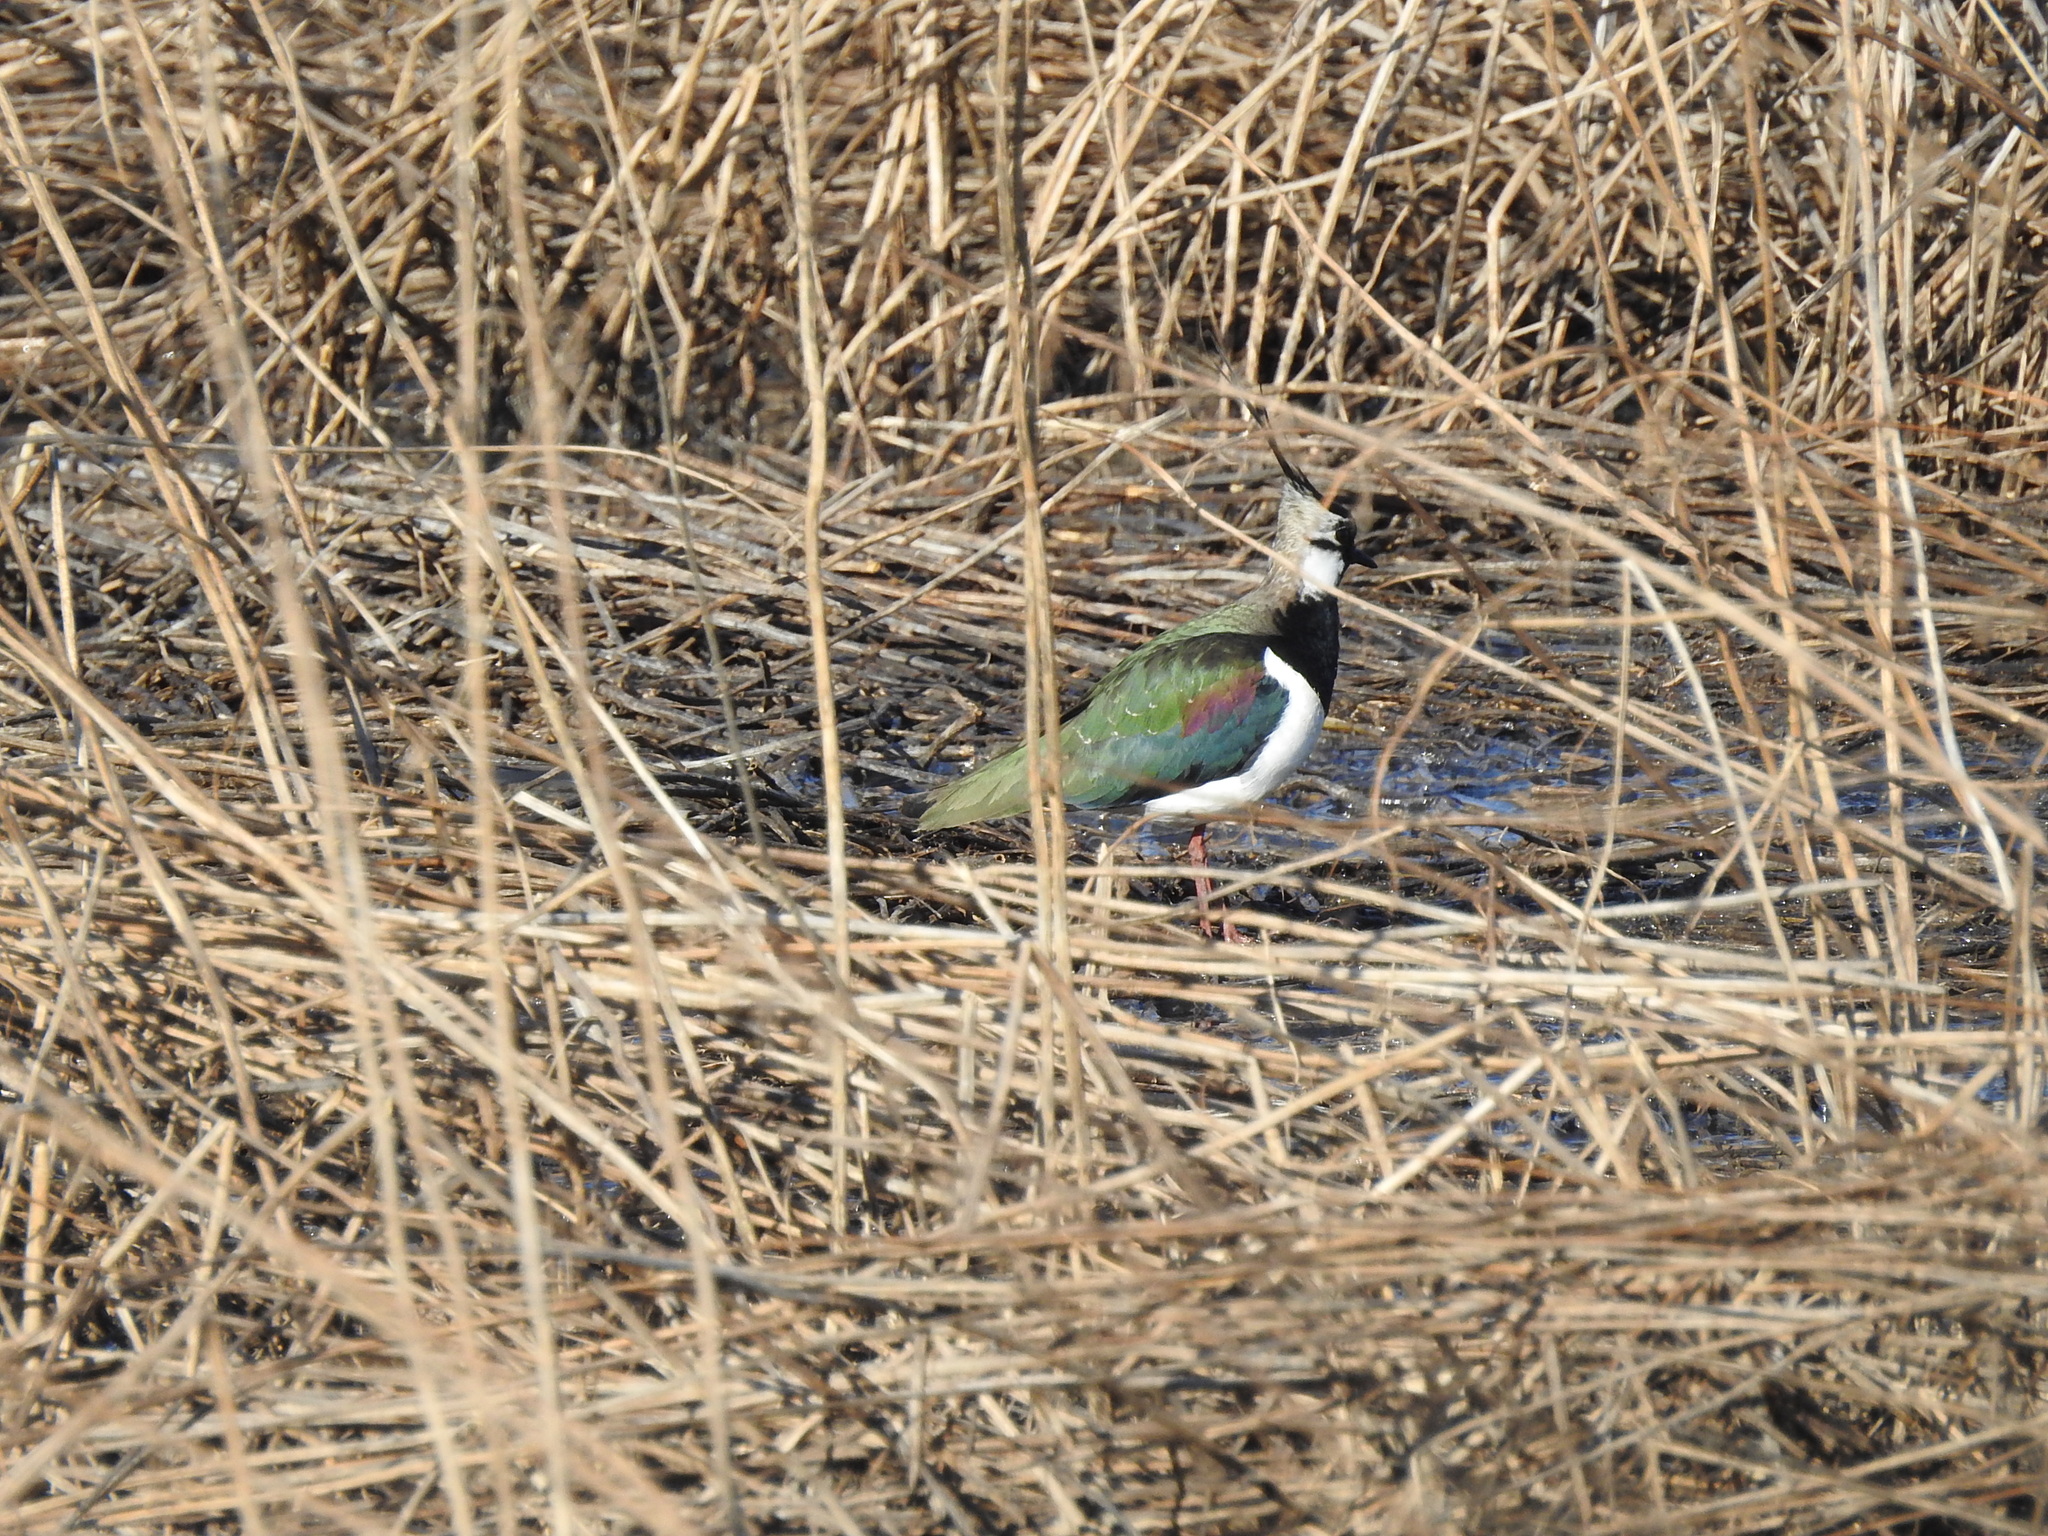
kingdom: Animalia
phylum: Chordata
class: Aves
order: Charadriiformes
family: Charadriidae
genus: Vanellus
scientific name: Vanellus vanellus
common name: Northern lapwing
